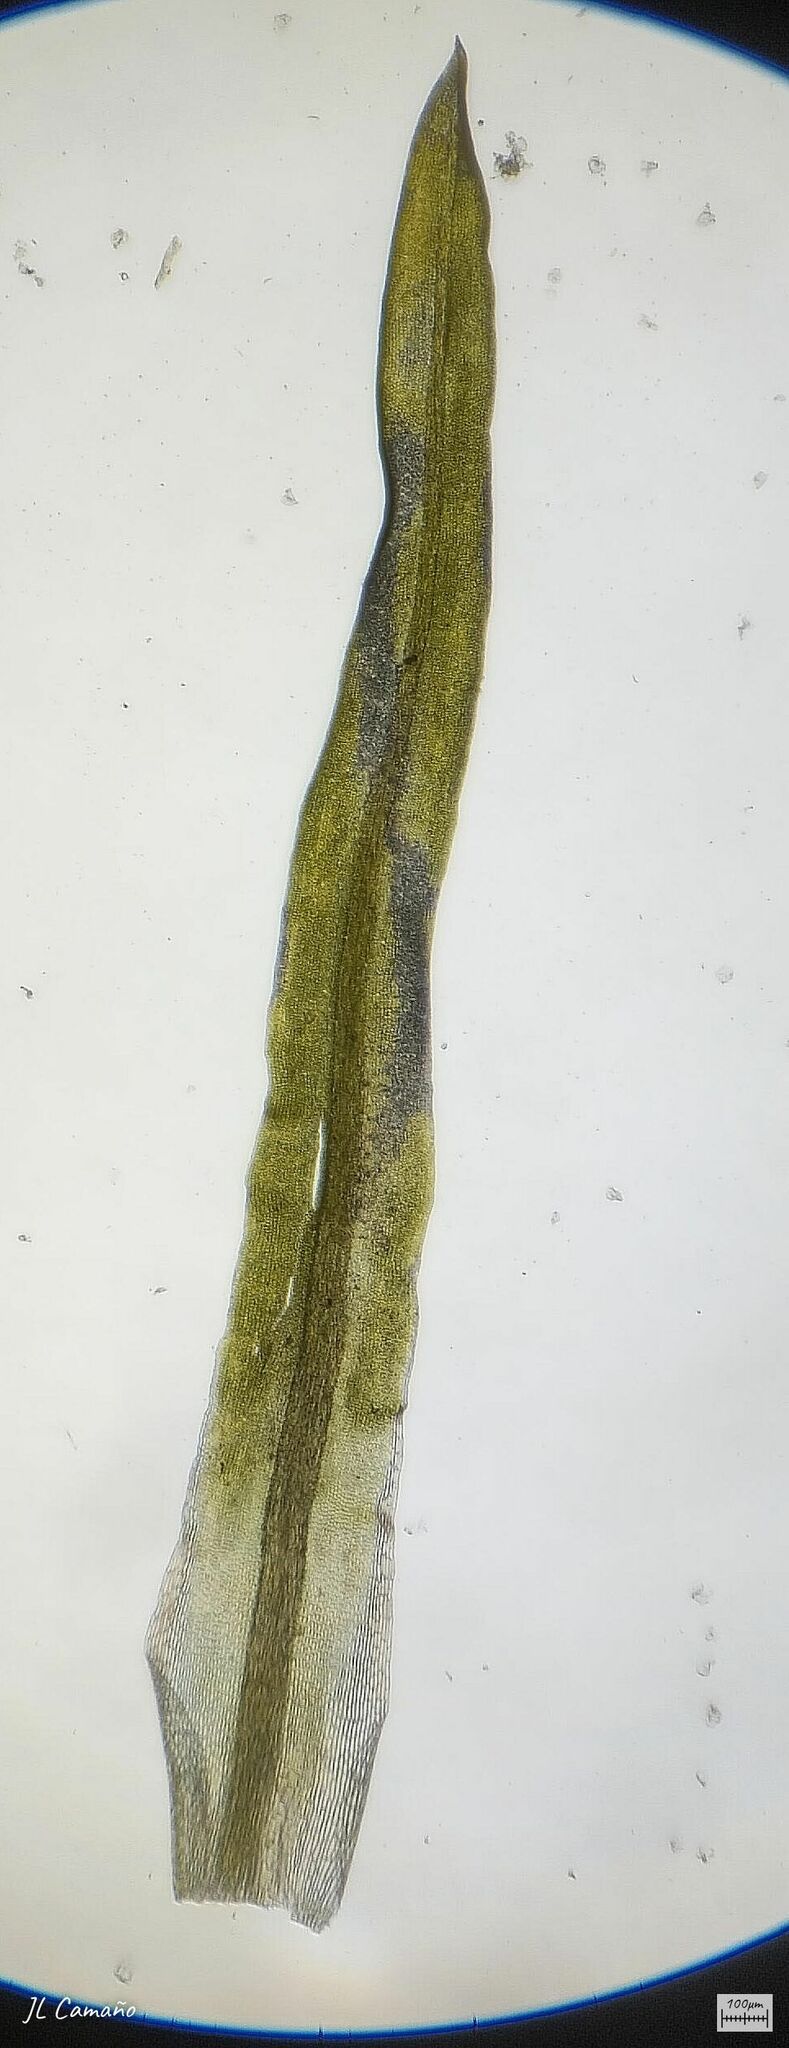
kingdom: Plantae
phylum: Bryophyta
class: Bryopsida
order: Pottiales
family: Pottiaceae
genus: Trichostomum
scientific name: Trichostomum brachydontium
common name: Variable crisp-moss
